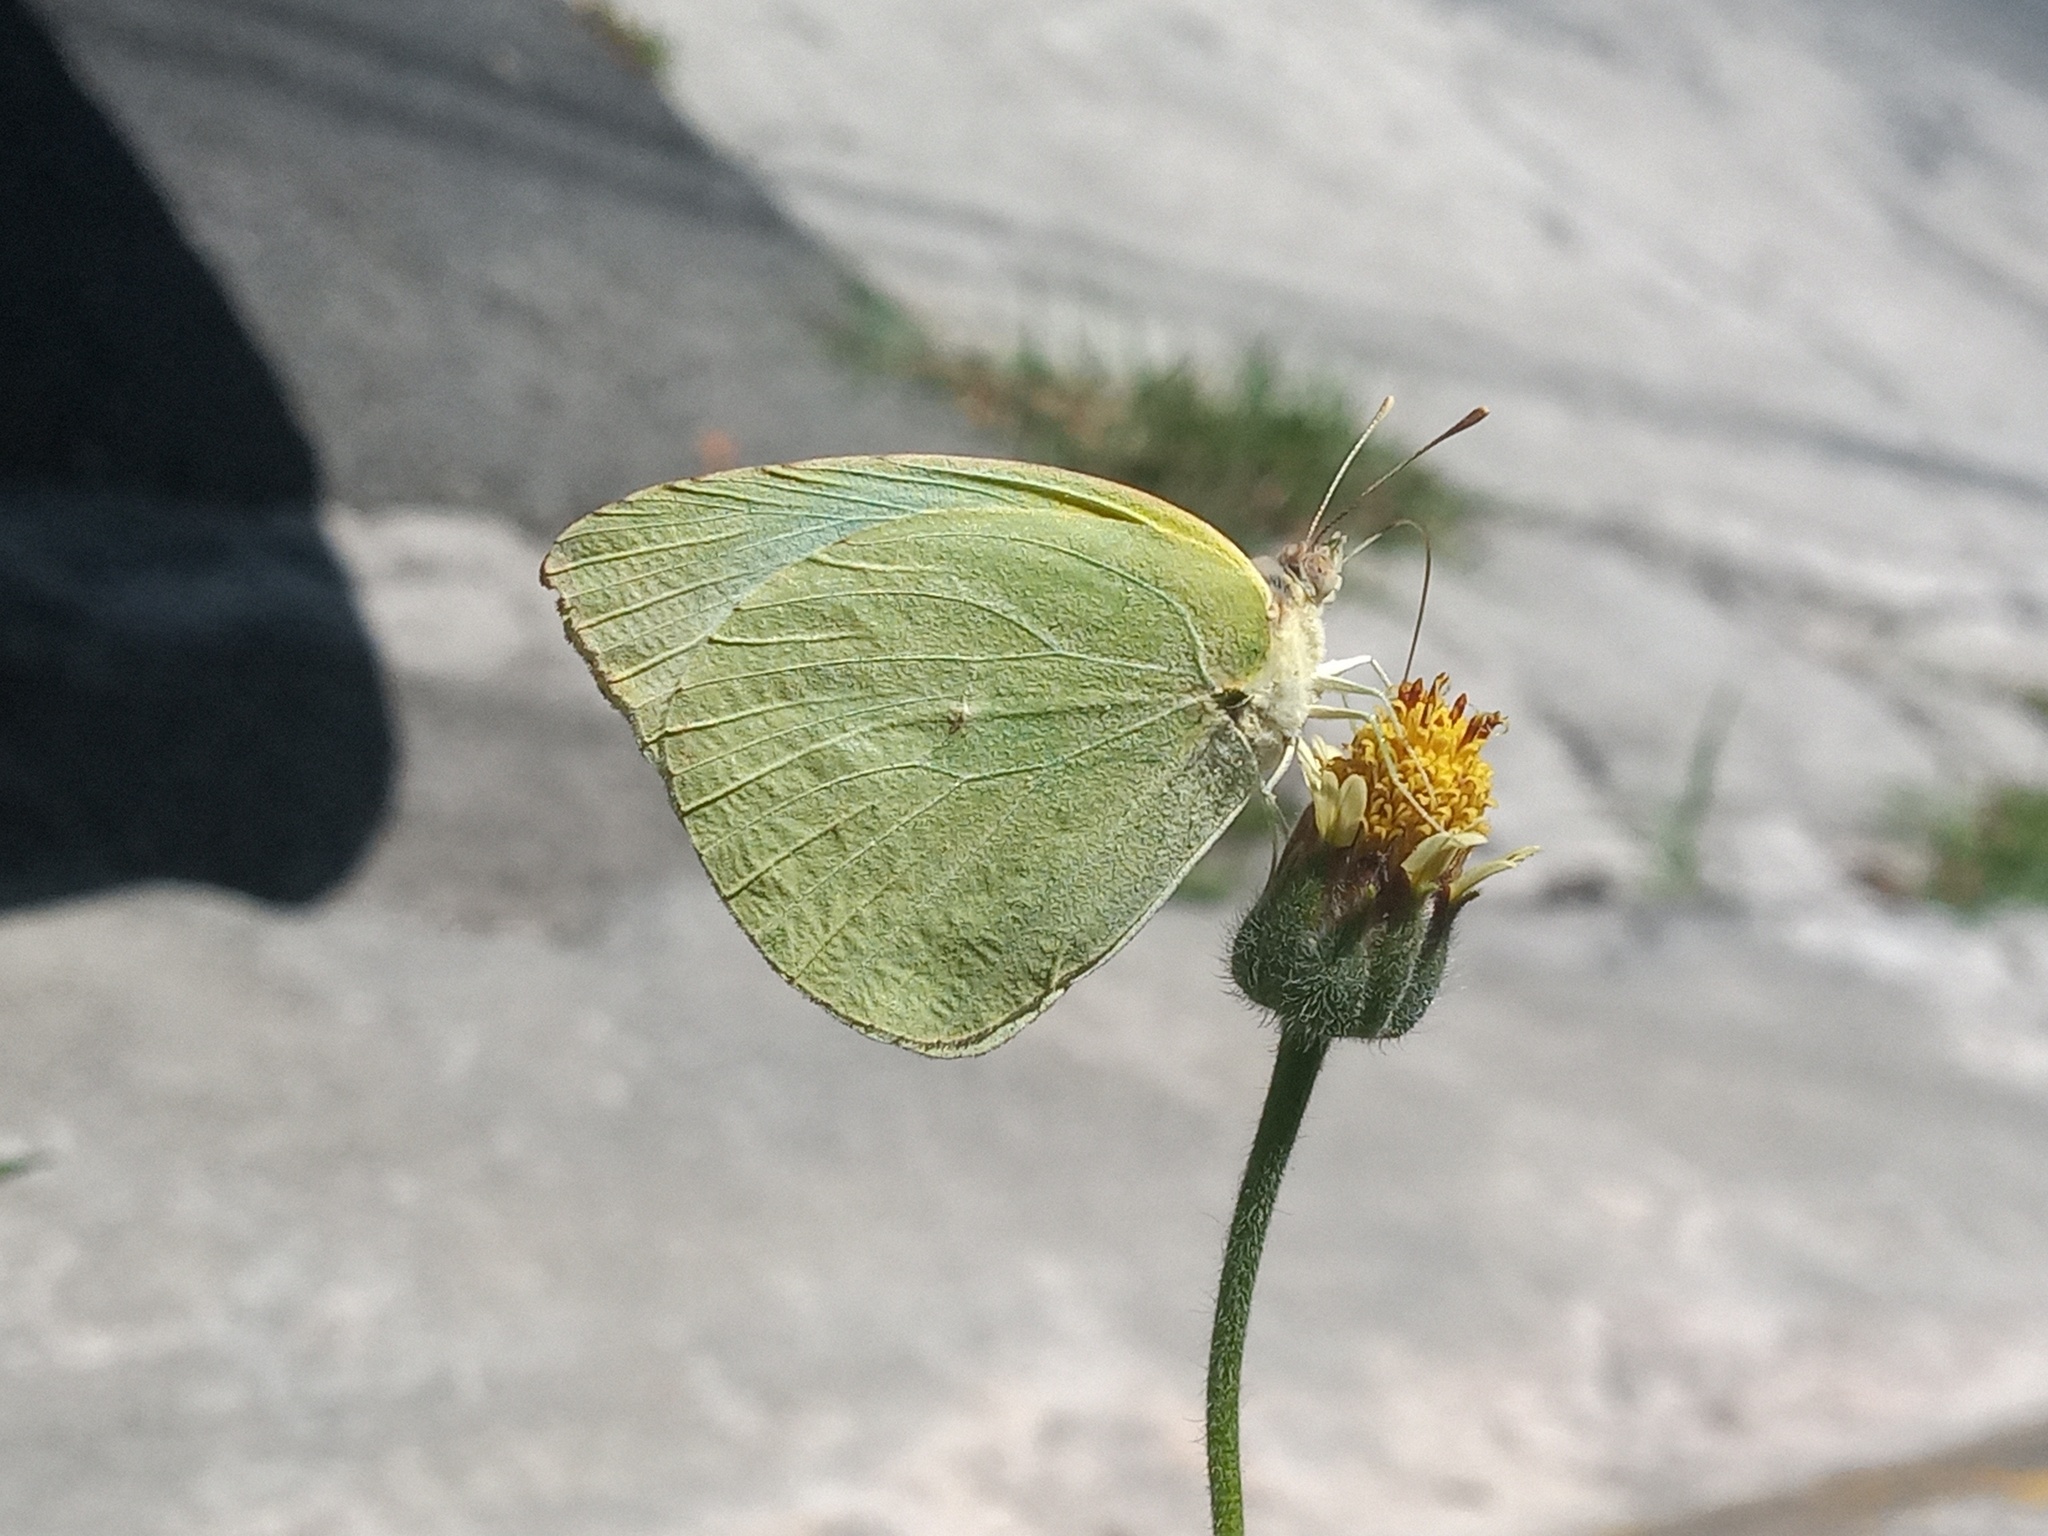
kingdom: Animalia
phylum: Arthropoda
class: Insecta
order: Lepidoptera
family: Pieridae
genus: Kricogonia
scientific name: Kricogonia lyside
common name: Guayacan sulphur,
